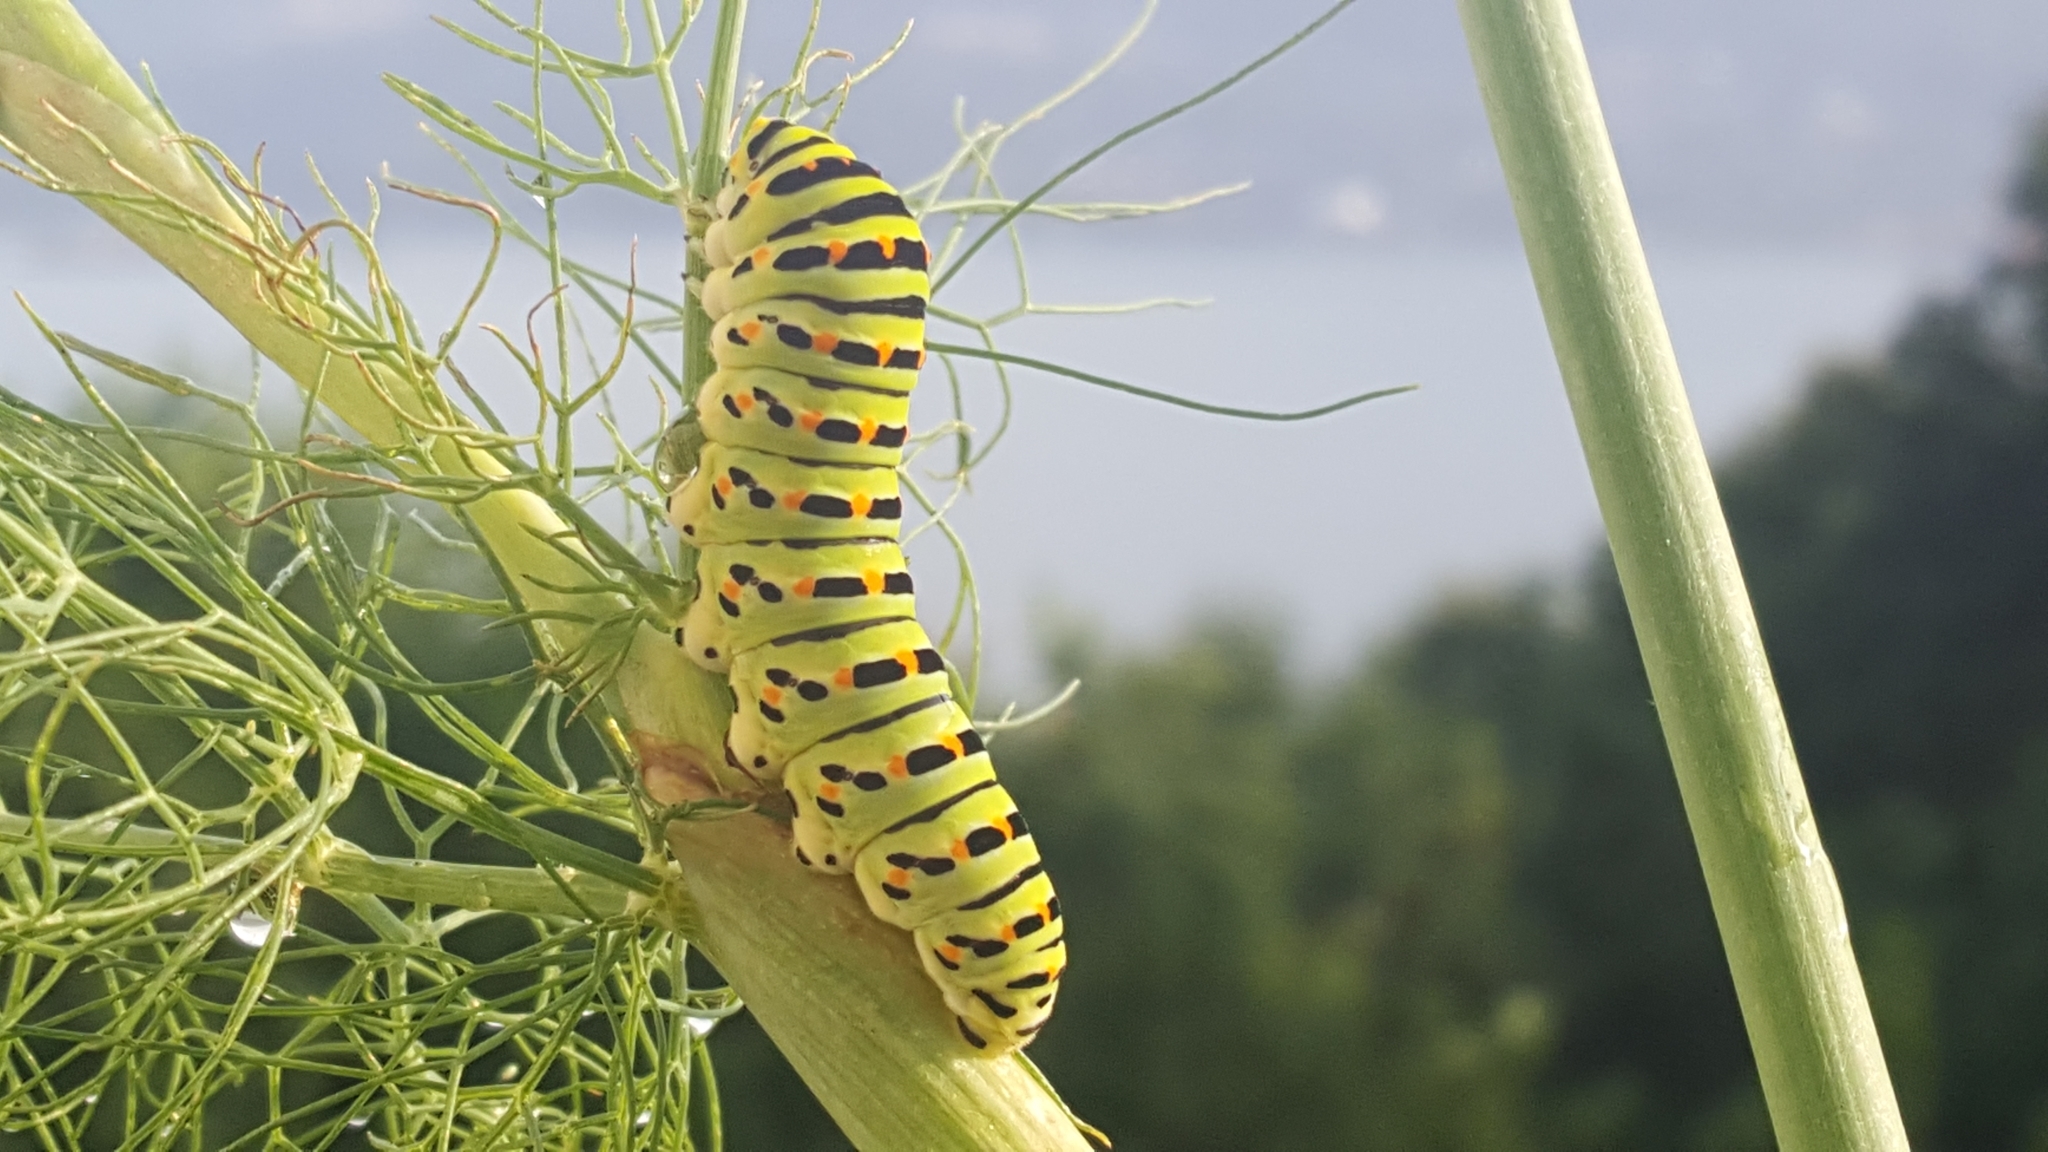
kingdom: Animalia
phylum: Arthropoda
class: Insecta
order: Lepidoptera
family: Papilionidae
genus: Papilio
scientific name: Papilio machaon
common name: Swallowtail
